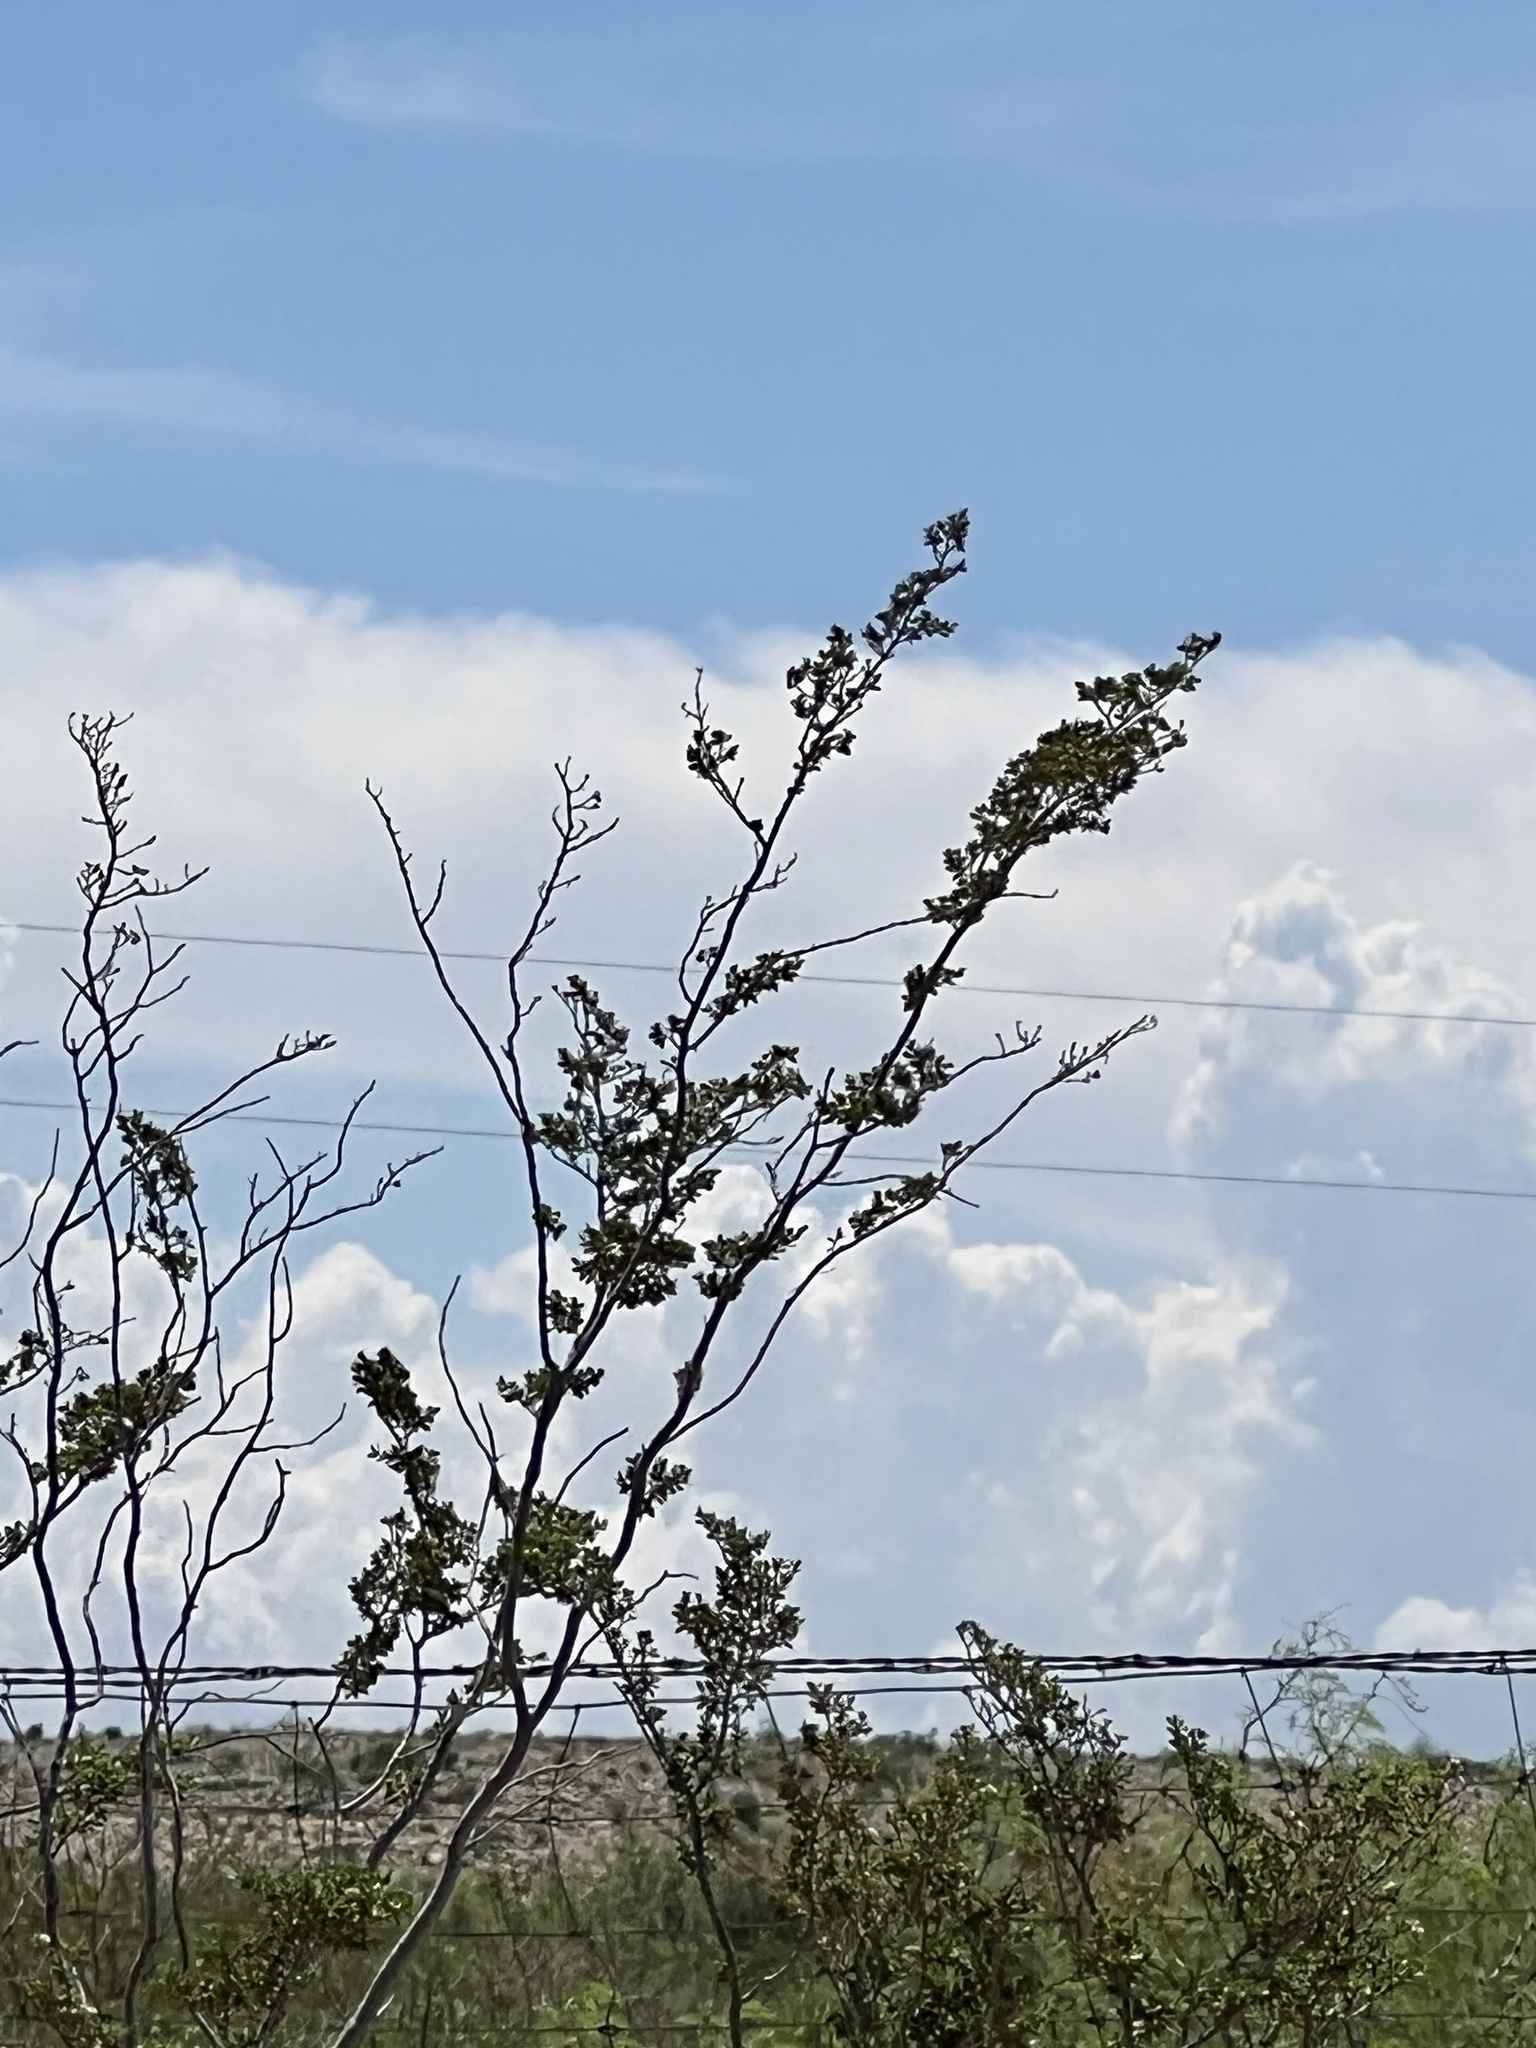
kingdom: Plantae
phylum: Tracheophyta
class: Magnoliopsida
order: Zygophyllales
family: Zygophyllaceae
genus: Larrea
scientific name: Larrea tridentata
